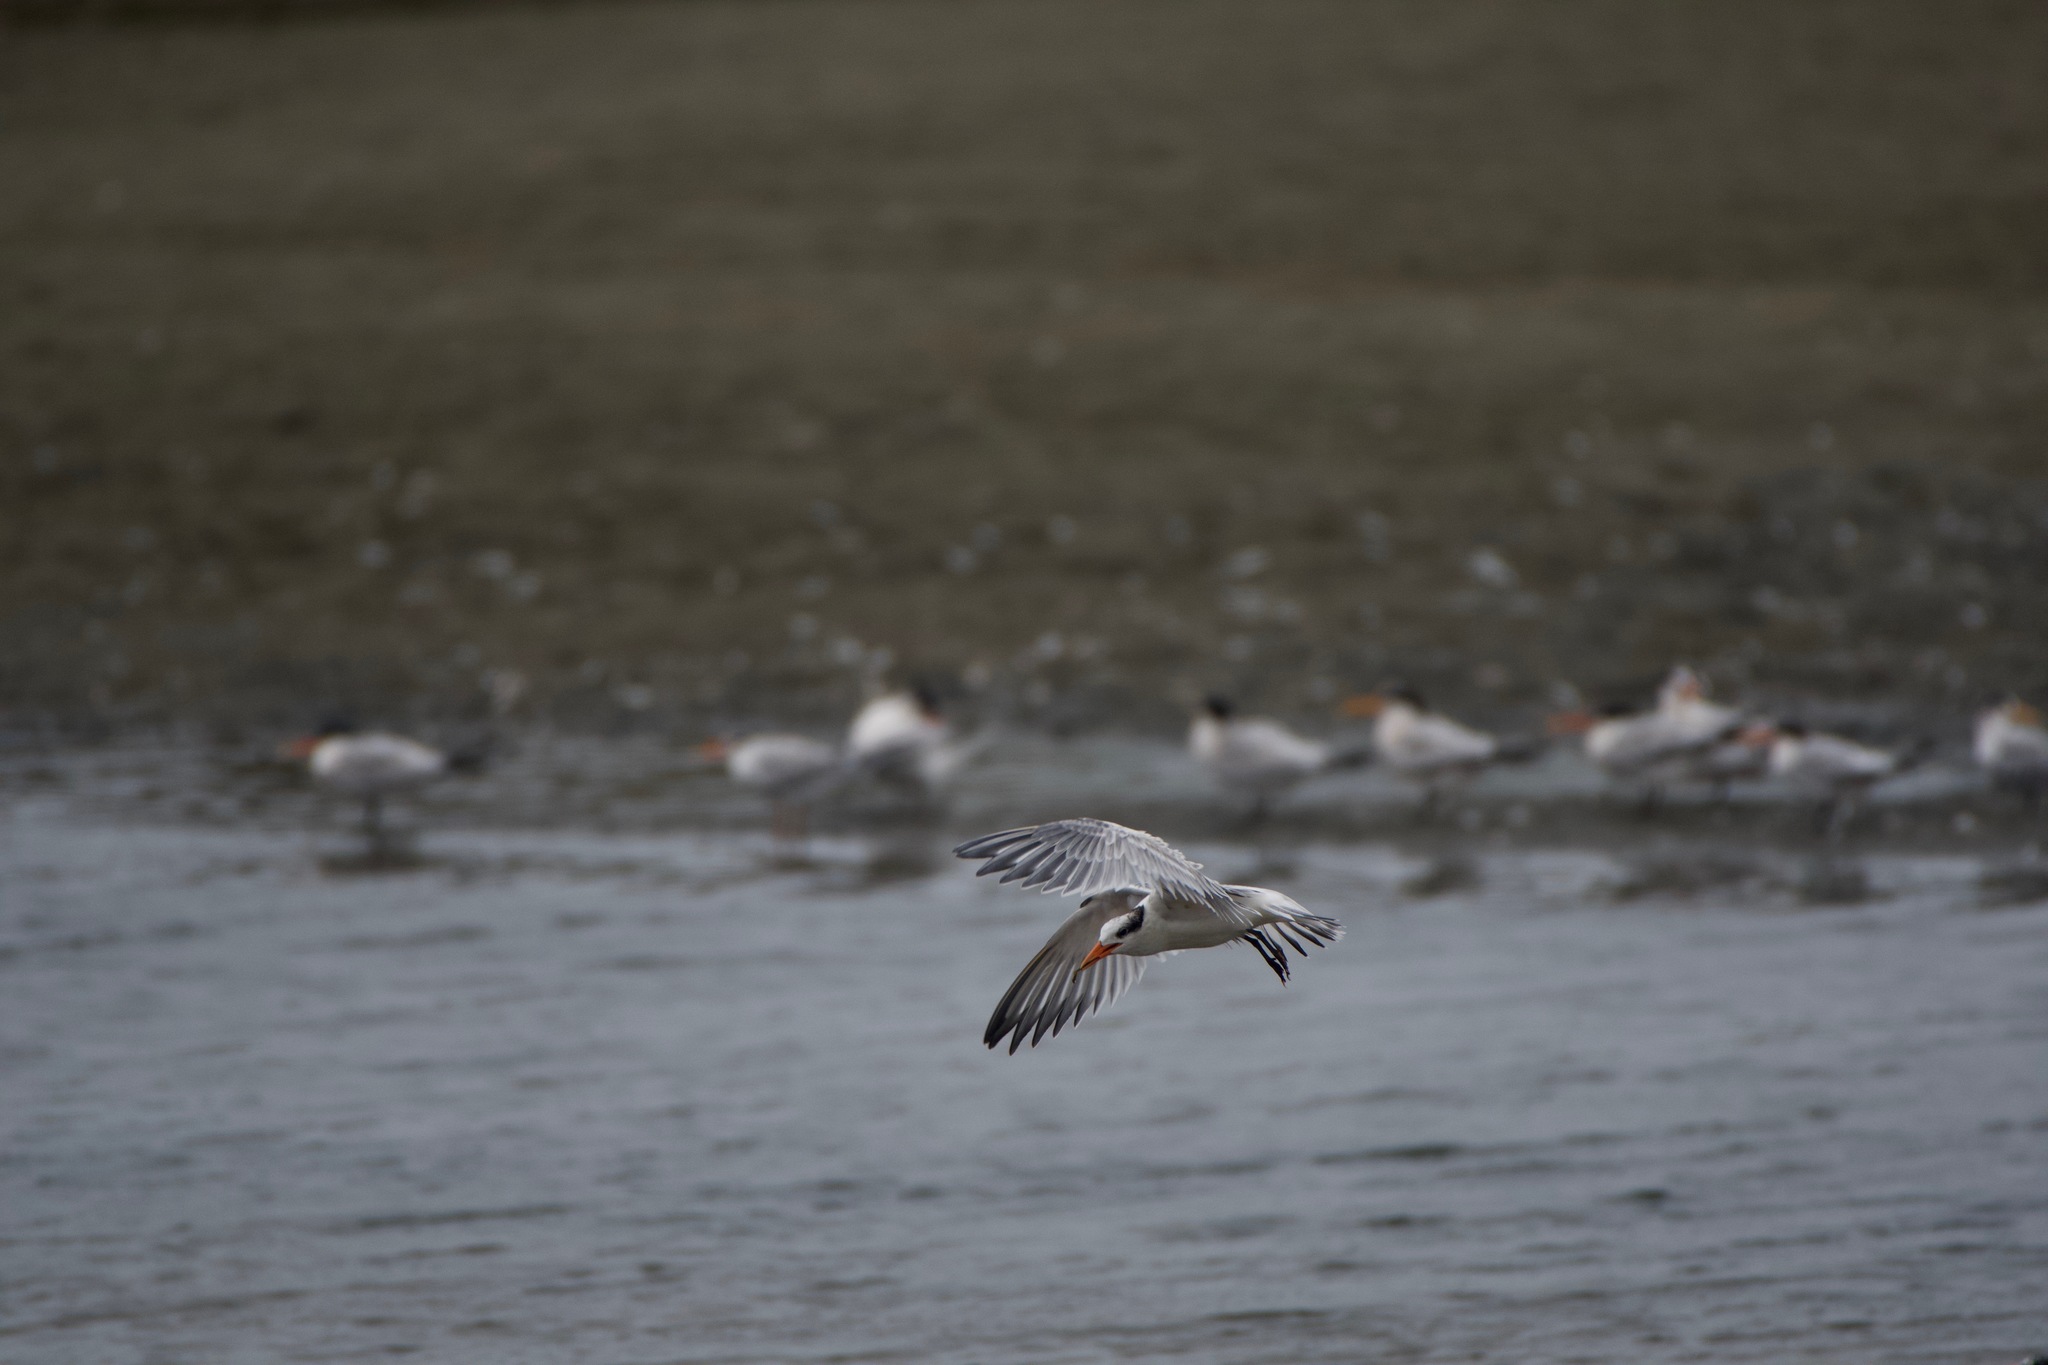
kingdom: Animalia
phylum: Chordata
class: Aves
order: Charadriiformes
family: Laridae
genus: Thalasseus
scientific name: Thalasseus elegans
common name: Elegant tern
